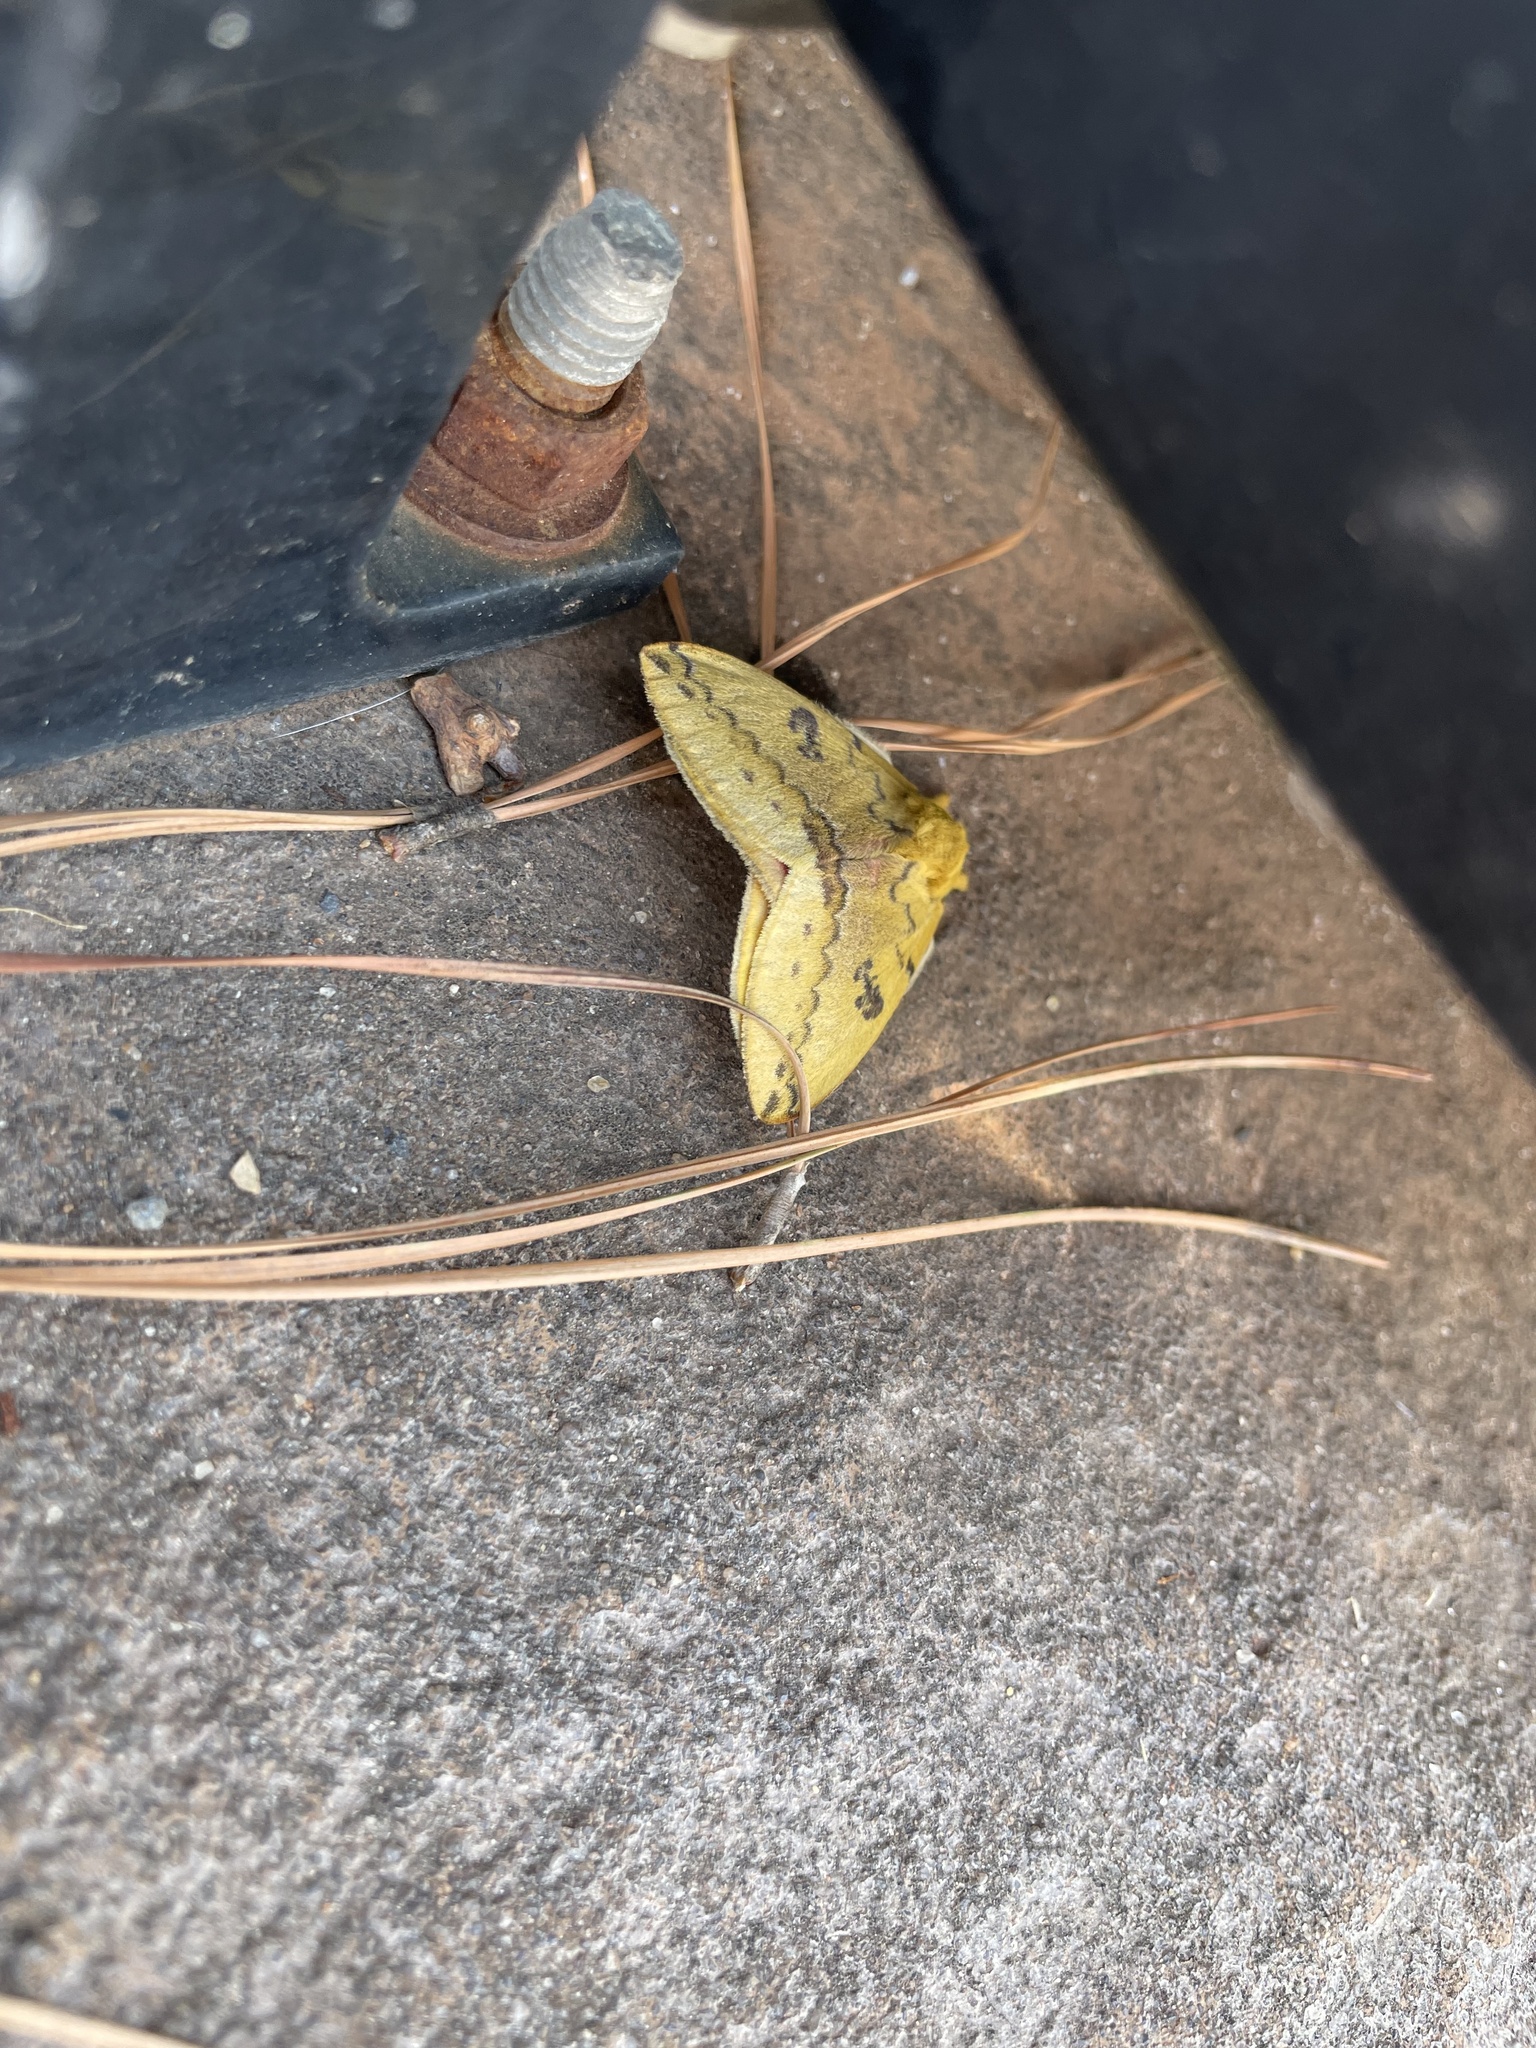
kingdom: Animalia
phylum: Arthropoda
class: Insecta
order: Lepidoptera
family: Saturniidae
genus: Automeris
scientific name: Automeris io
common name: Io moth
